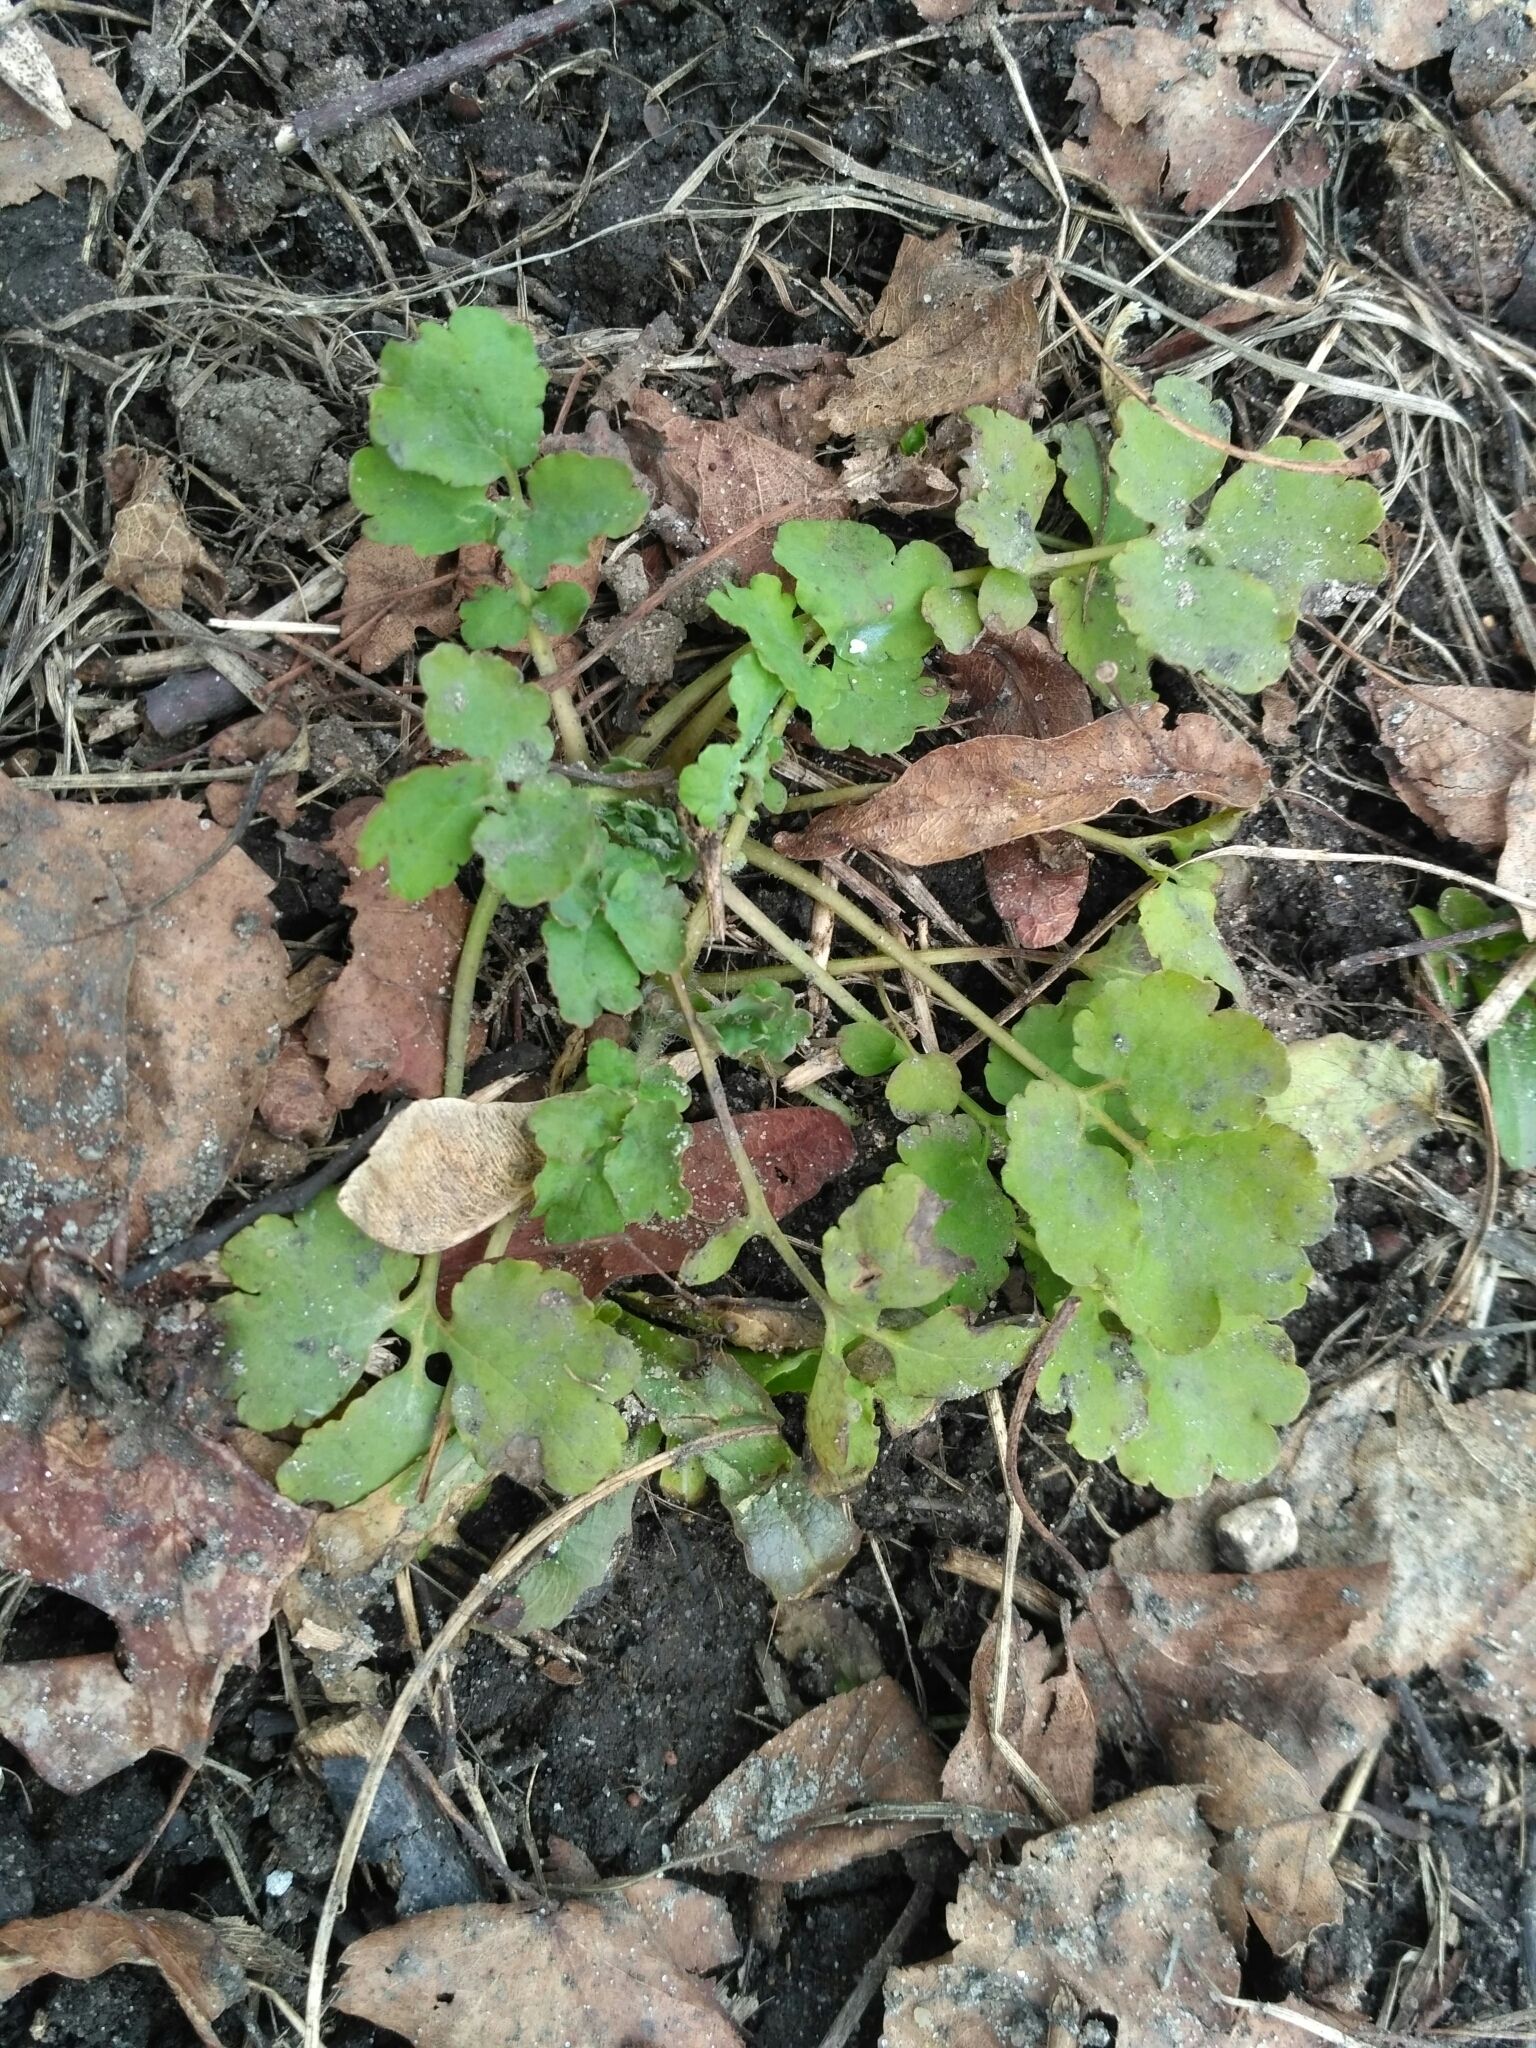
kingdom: Plantae
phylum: Tracheophyta
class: Magnoliopsida
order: Ranunculales
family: Papaveraceae
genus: Chelidonium
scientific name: Chelidonium majus
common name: Greater celandine
